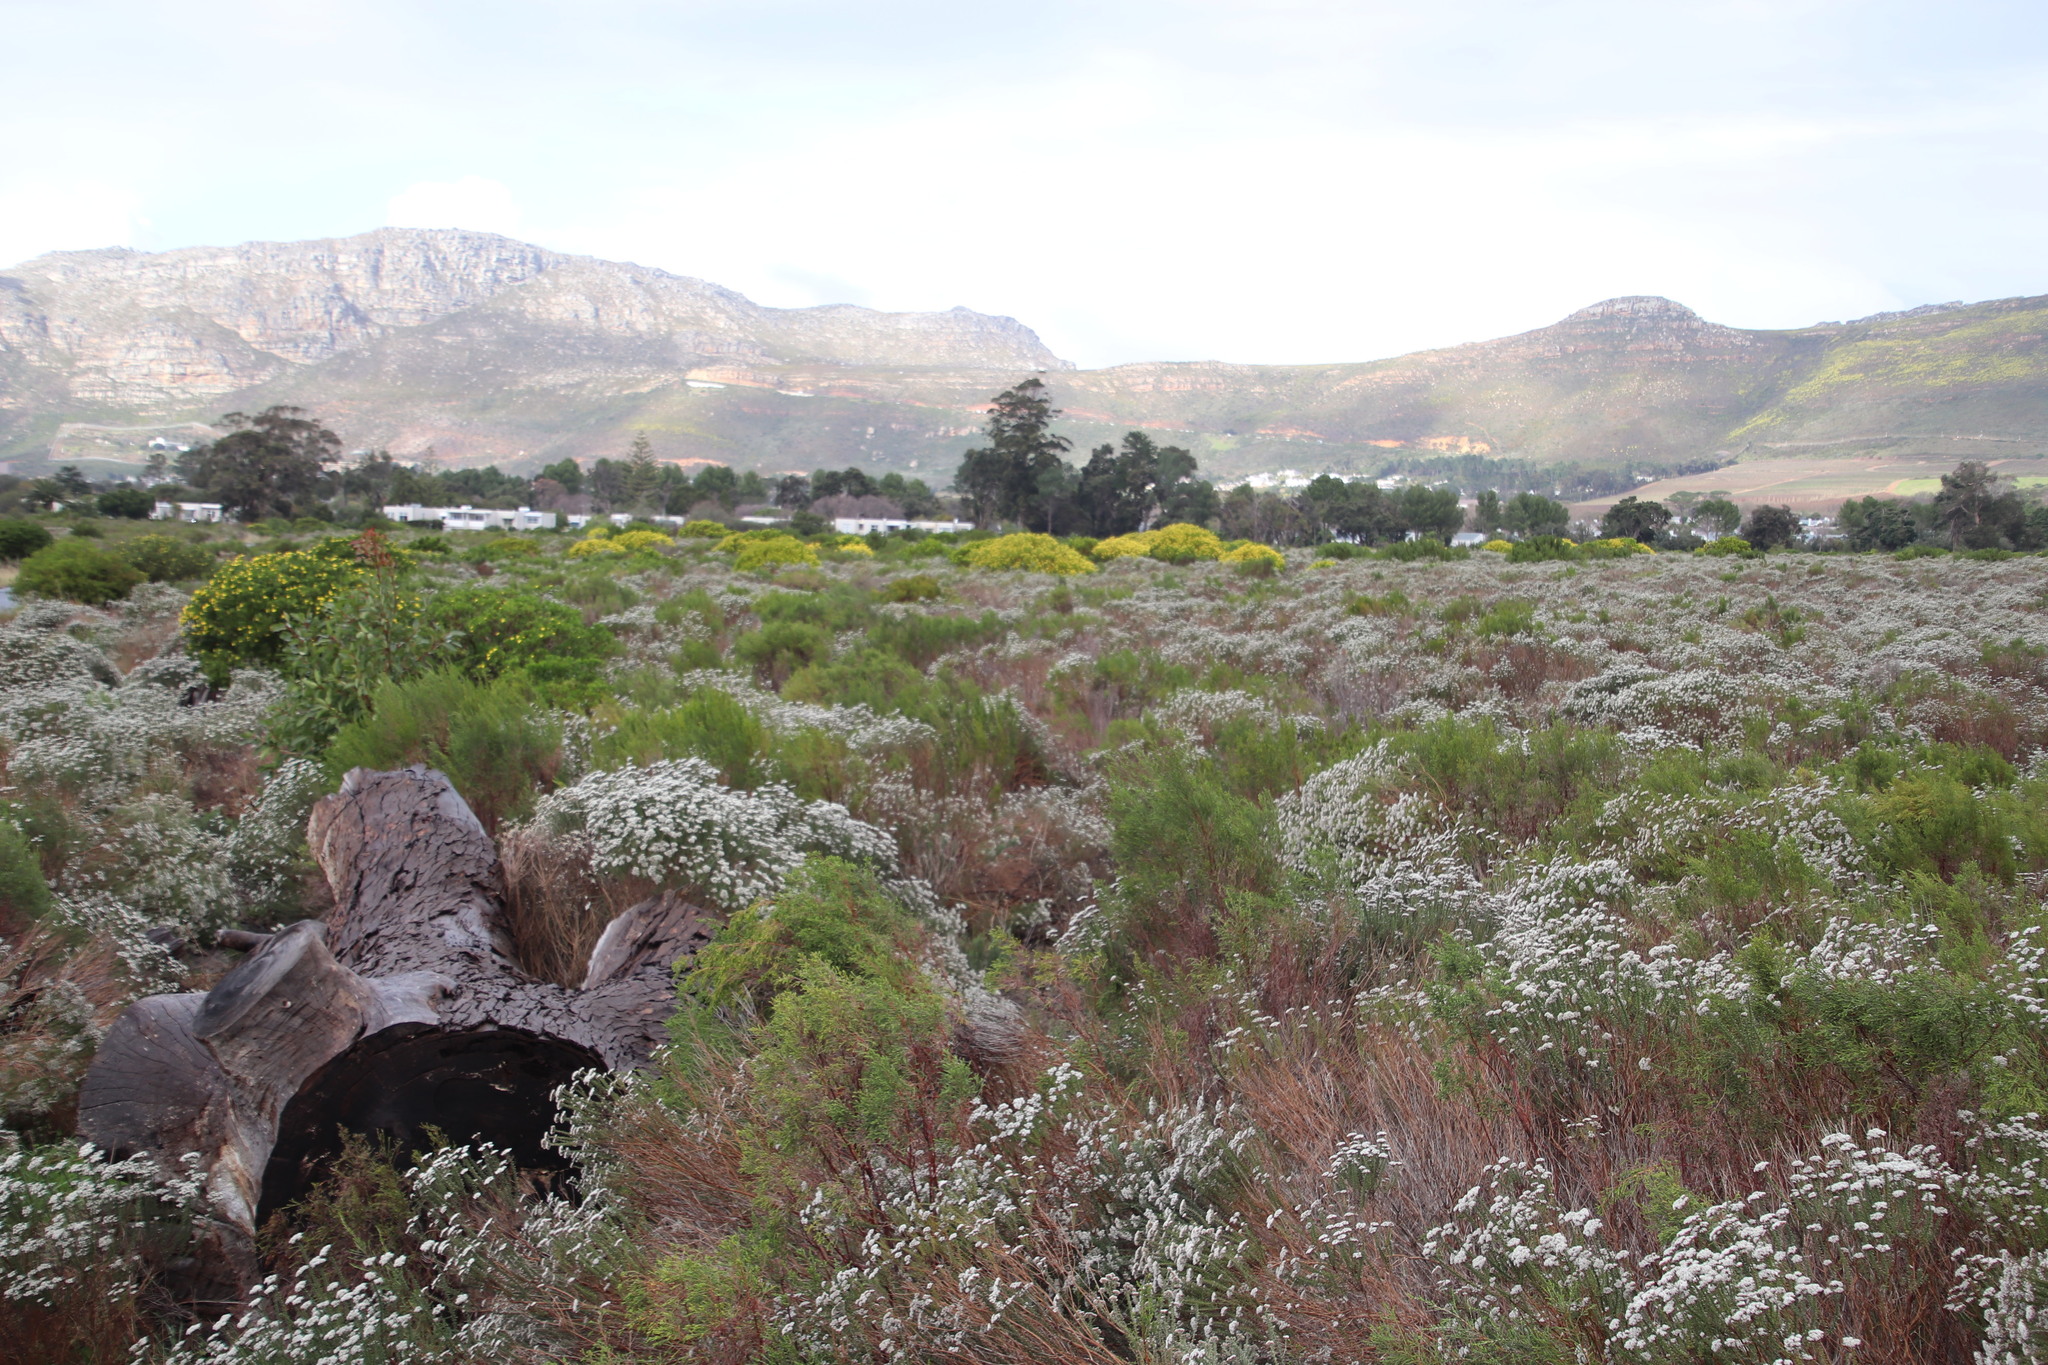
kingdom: Plantae
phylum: Tracheophyta
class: Magnoliopsida
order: Proteales
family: Proteaceae
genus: Leucadendron
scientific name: Leucadendron laureolum
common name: Golden sunshinebush
